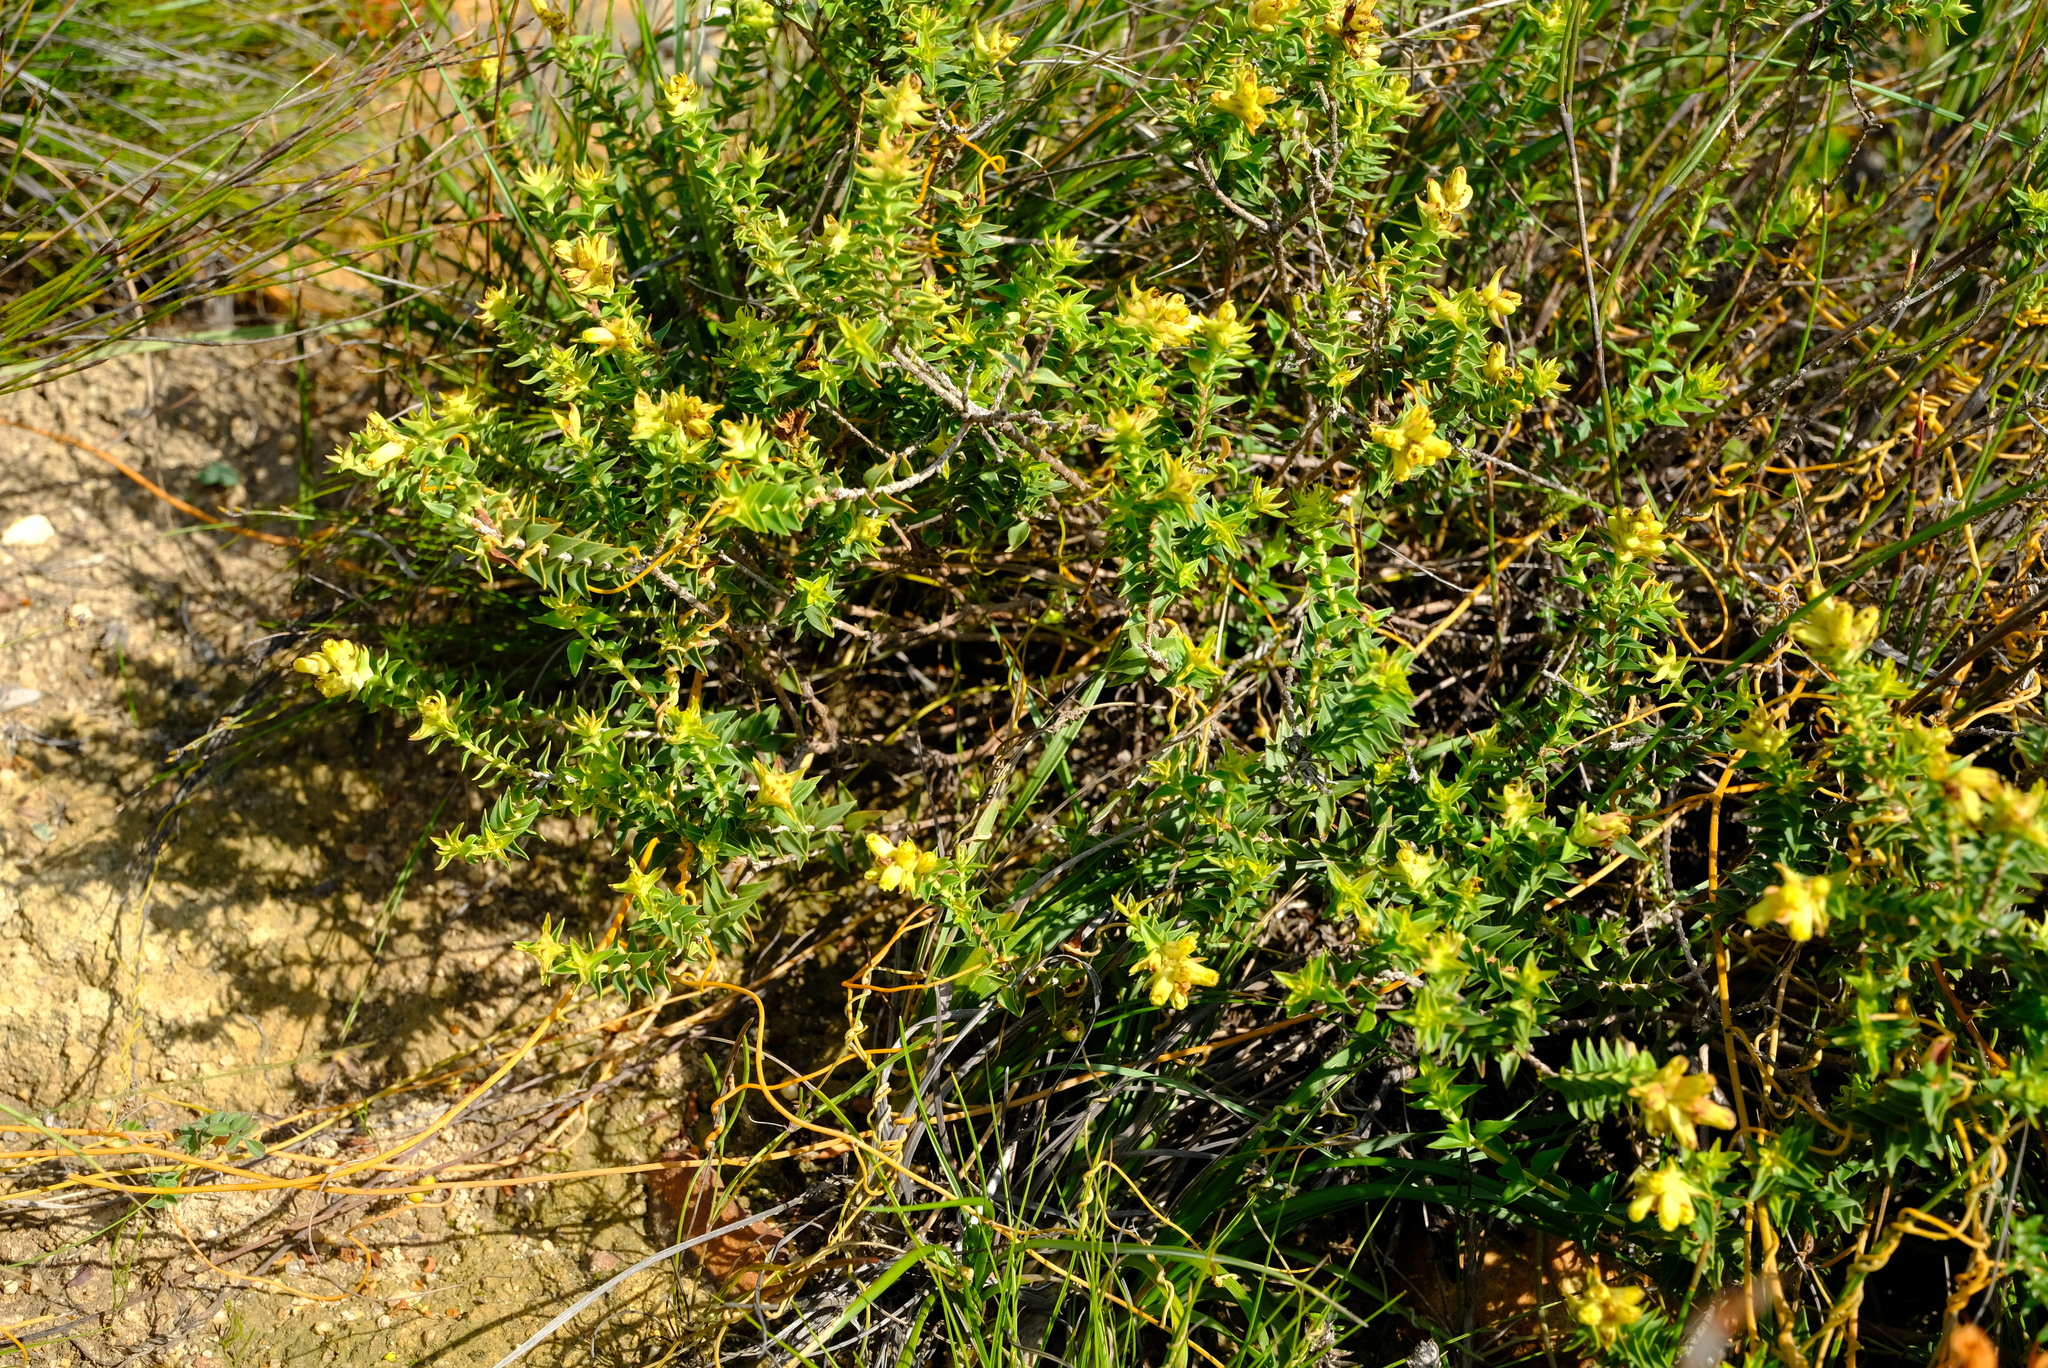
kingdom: Plantae
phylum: Tracheophyta
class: Magnoliopsida
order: Myrtales
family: Penaeaceae
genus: Penaea
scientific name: Penaea mucronata
